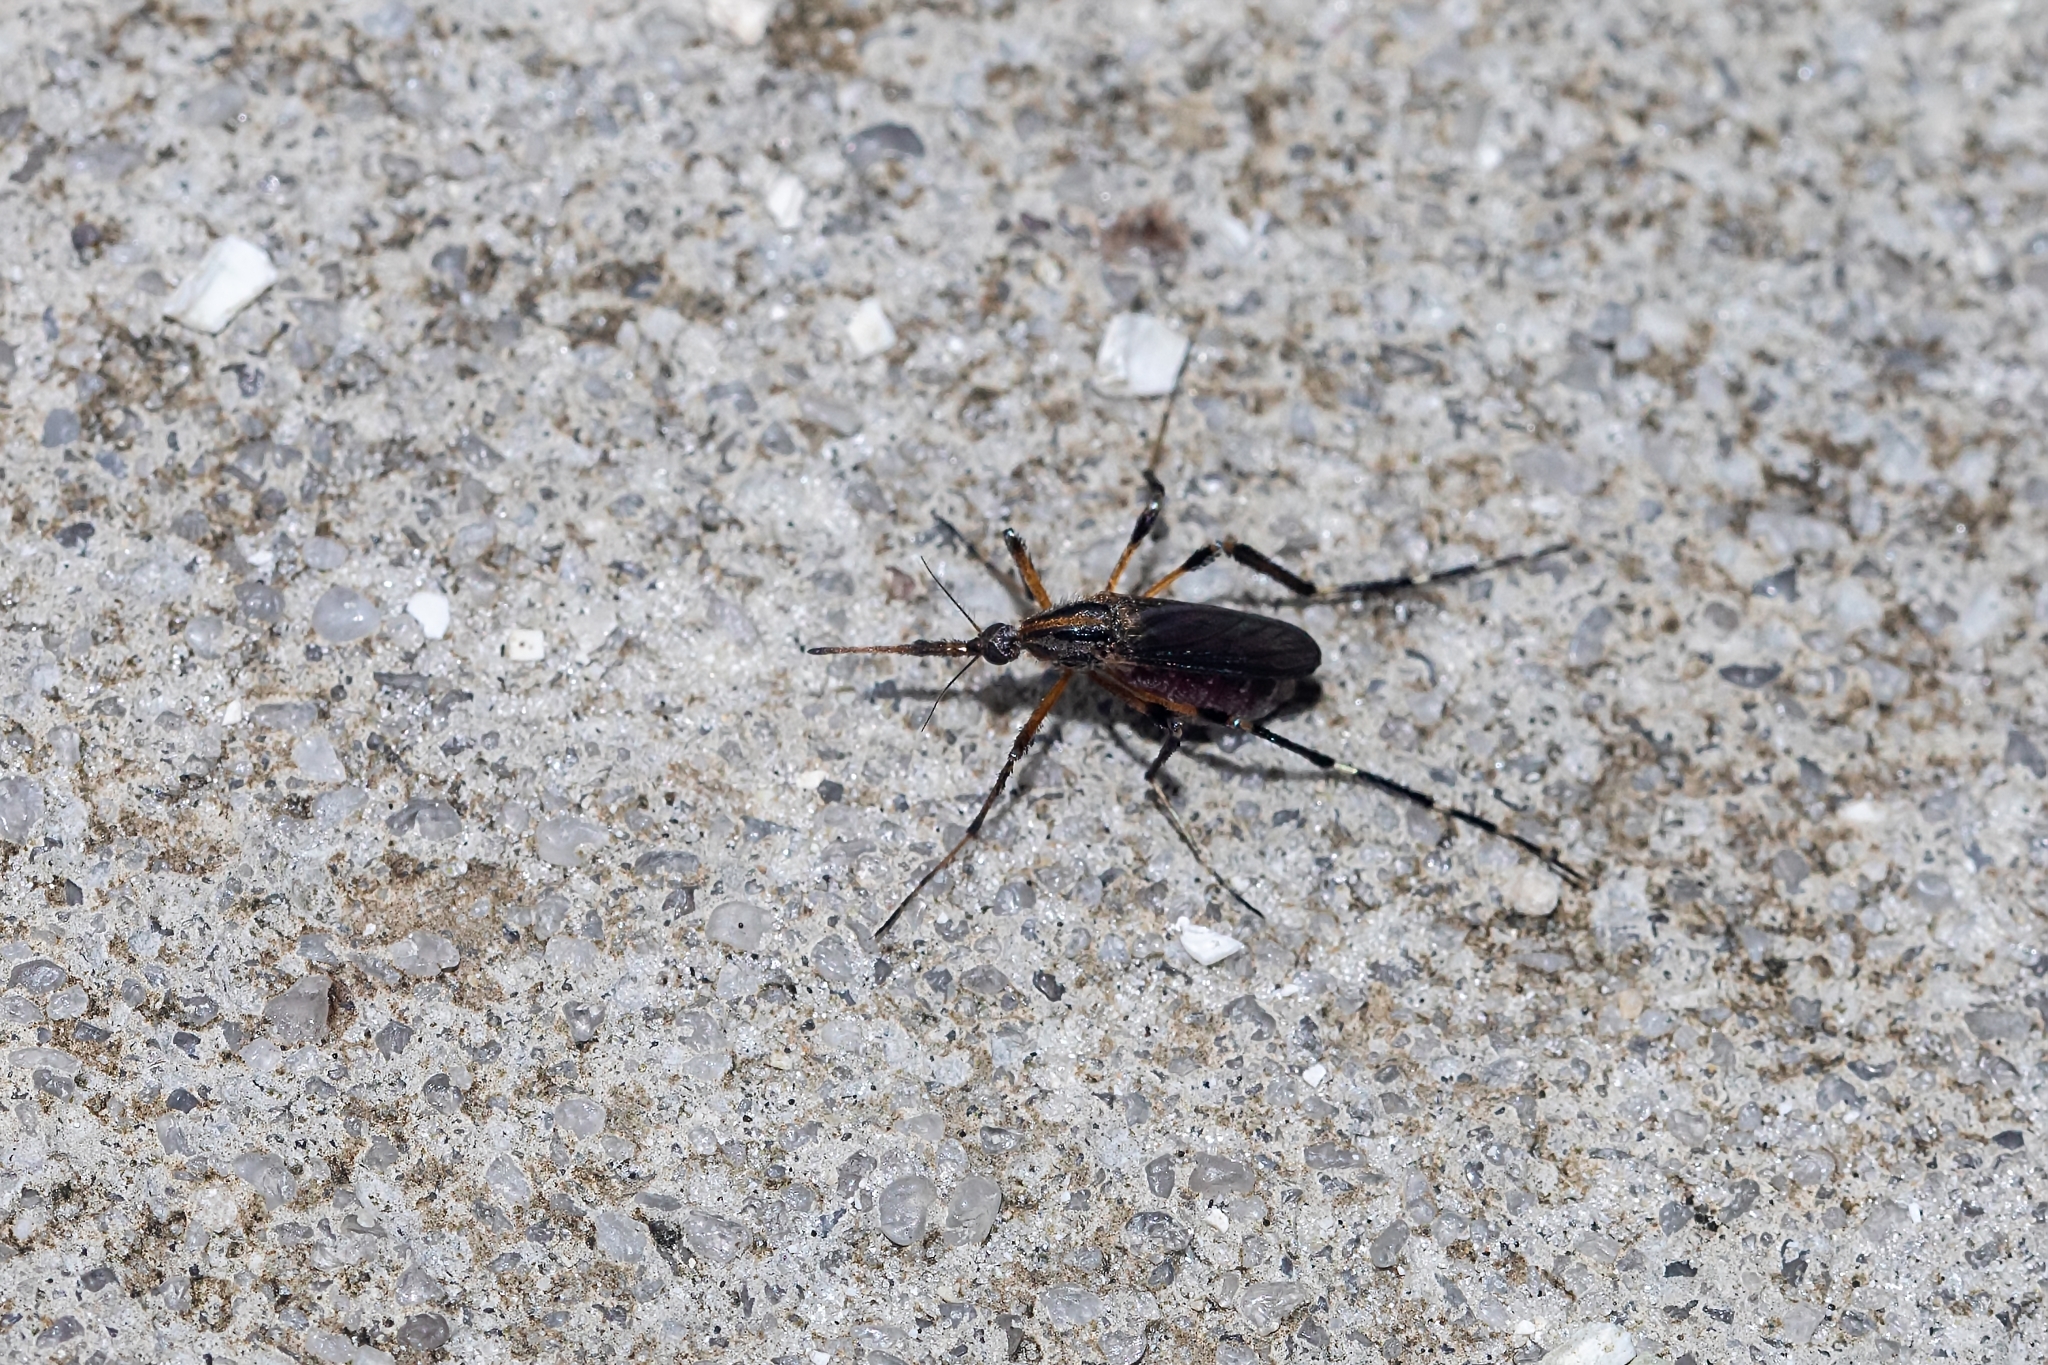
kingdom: Animalia
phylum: Arthropoda
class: Insecta
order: Diptera
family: Culicidae
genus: Psorophora
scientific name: Psorophora ciliata
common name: Gallinipper
